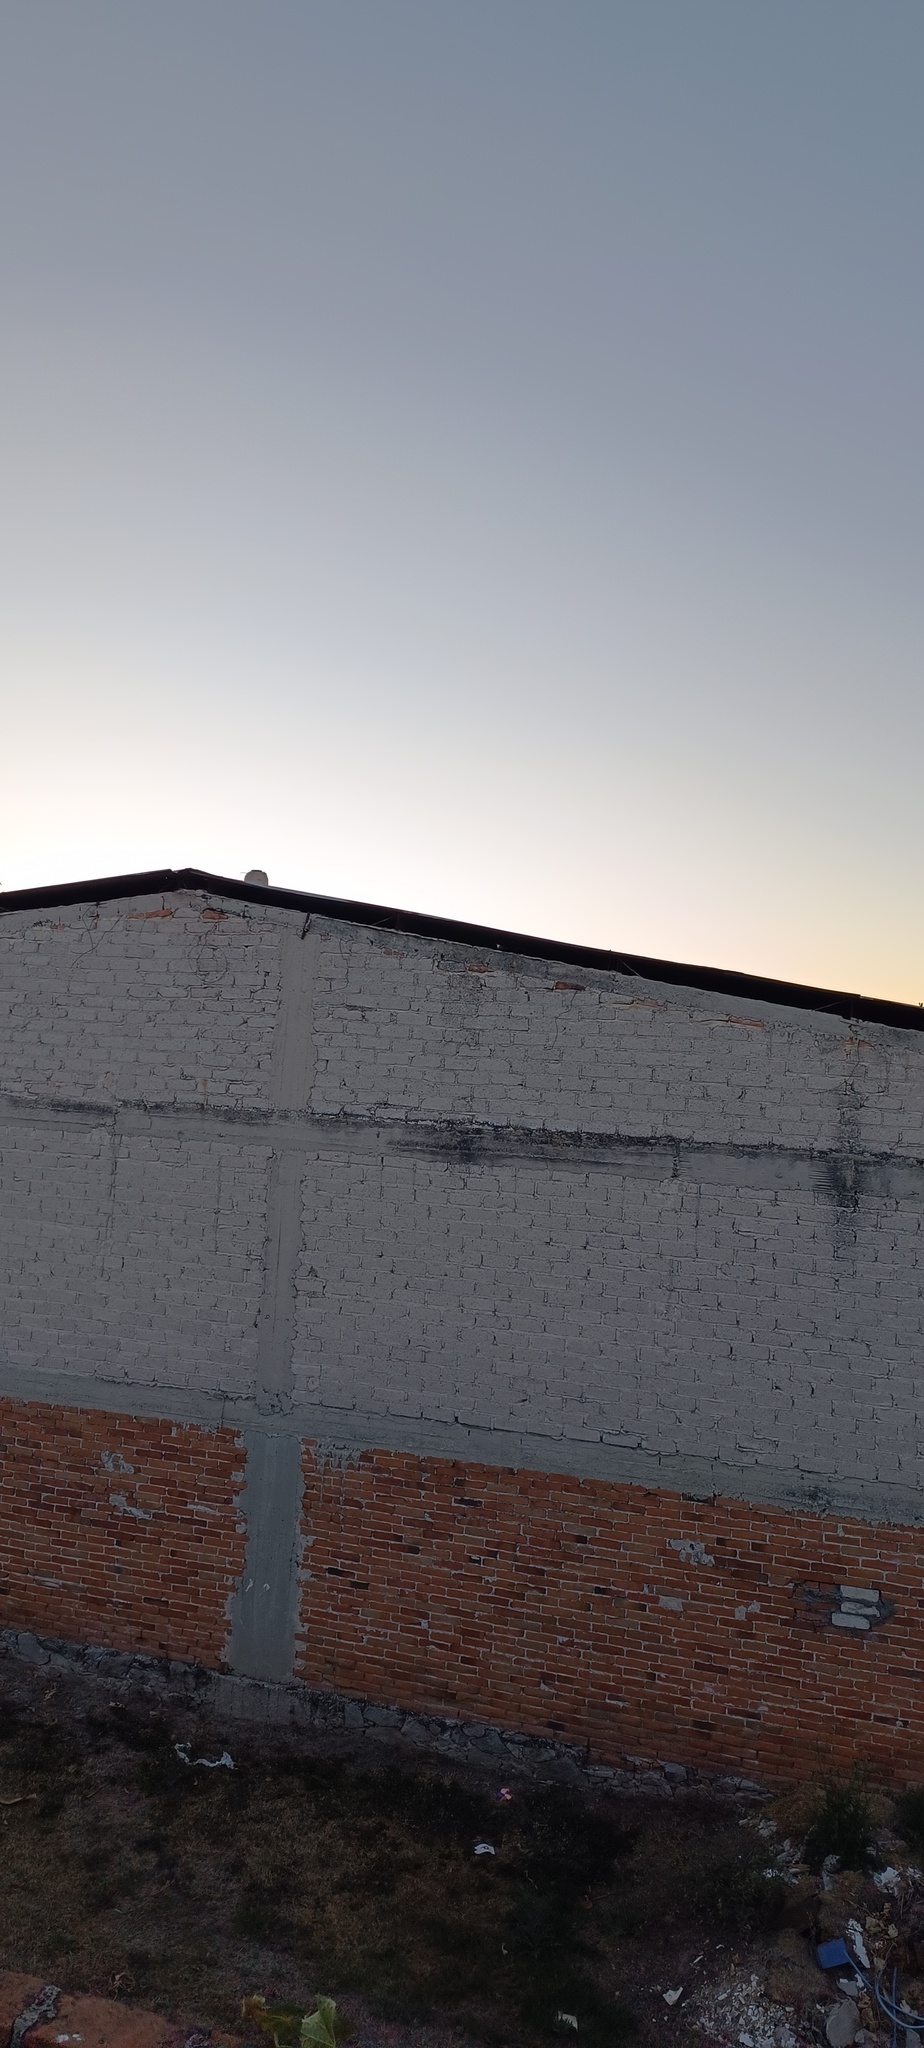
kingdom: Animalia
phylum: Chordata
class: Aves
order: Passeriformes
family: Troglodytidae
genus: Catherpes
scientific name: Catherpes mexicanus
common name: Canyon wren
